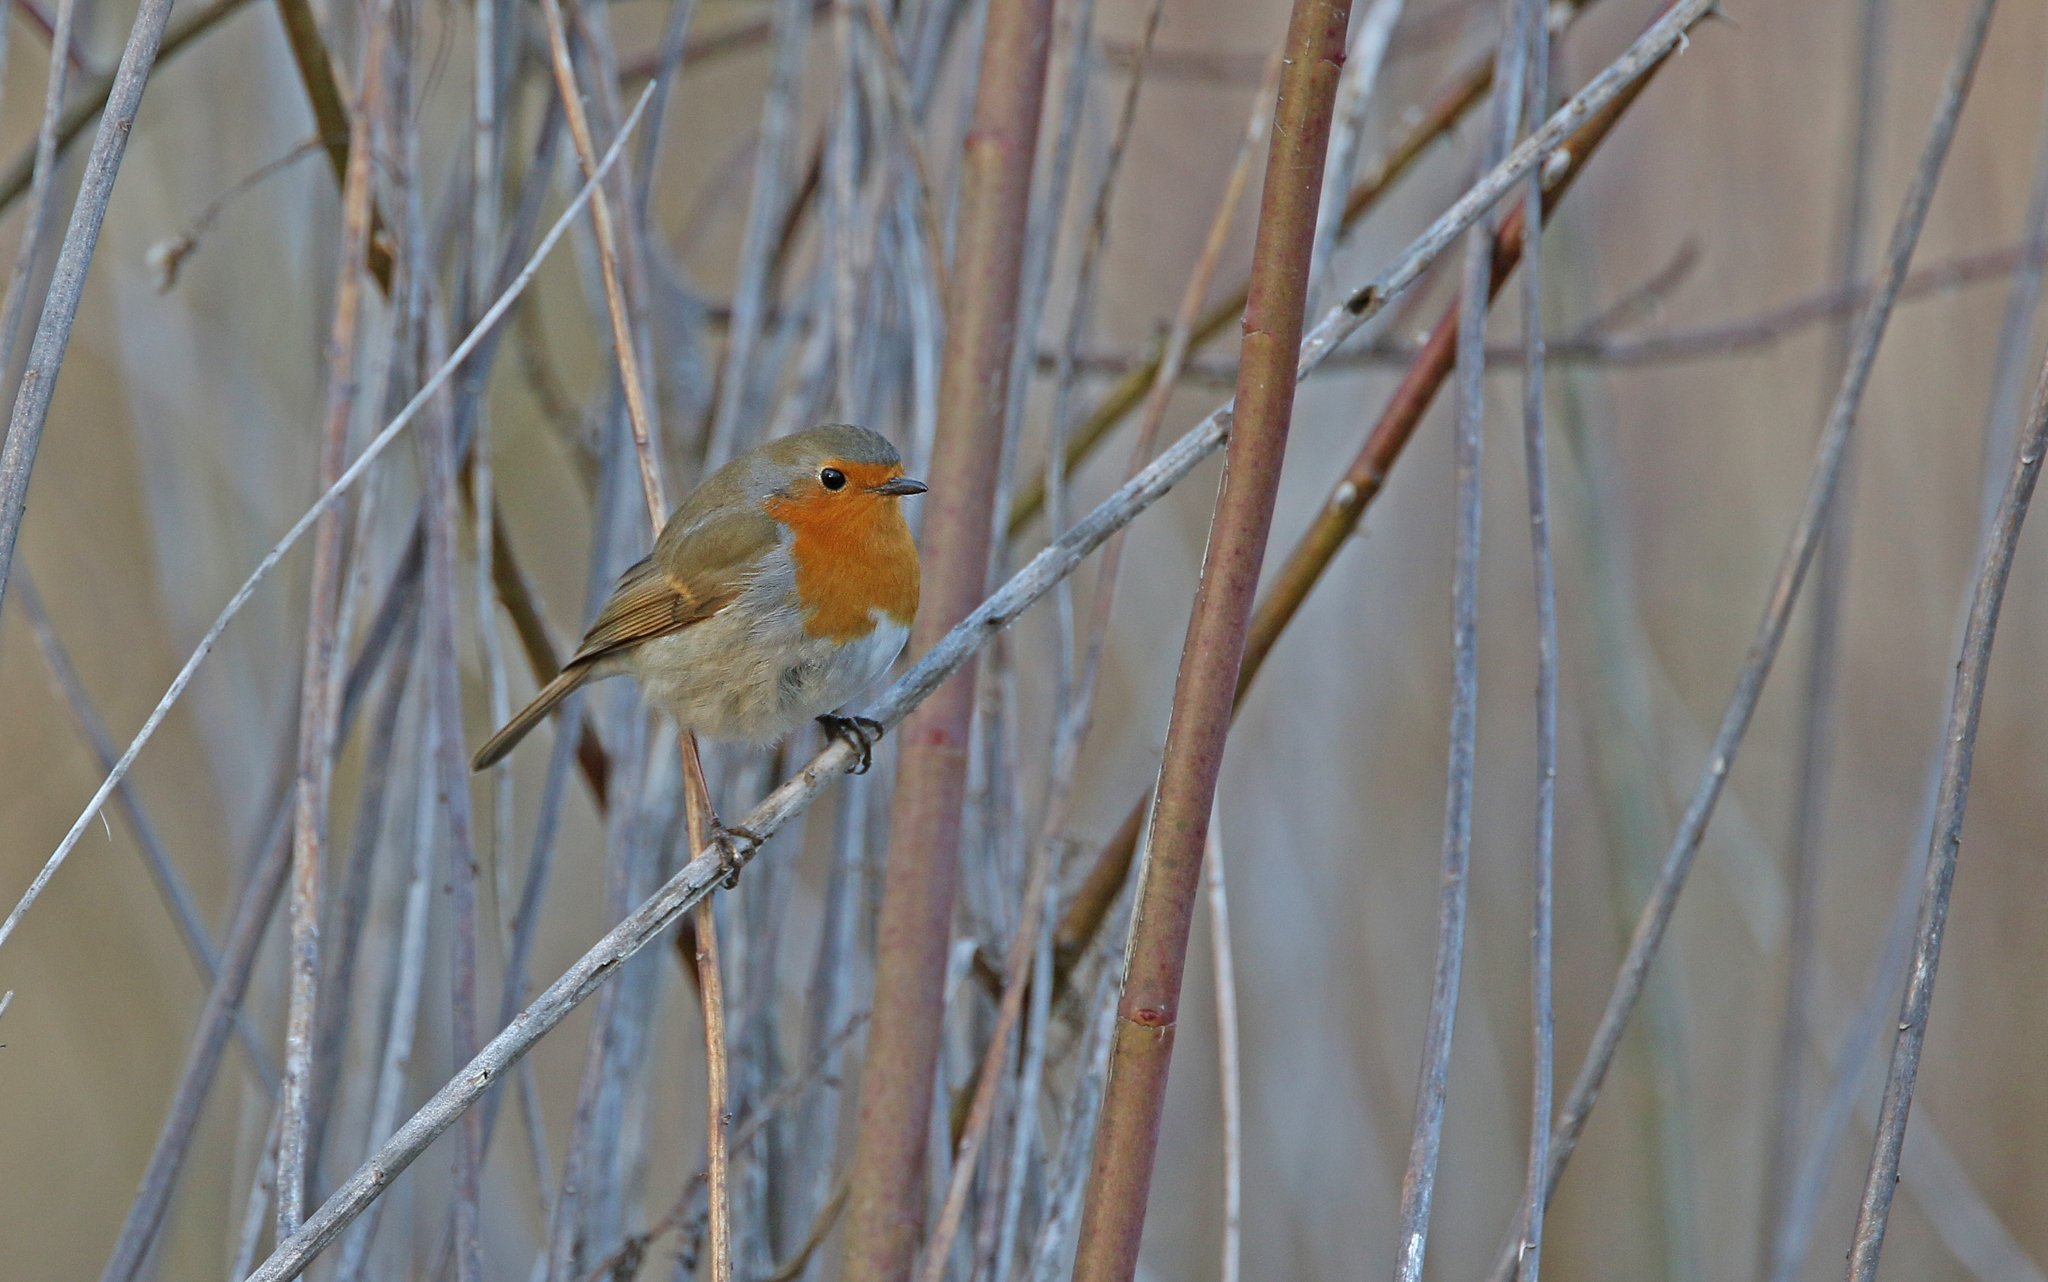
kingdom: Animalia
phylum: Chordata
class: Aves
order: Passeriformes
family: Muscicapidae
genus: Erithacus
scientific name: Erithacus rubecula
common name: European robin
